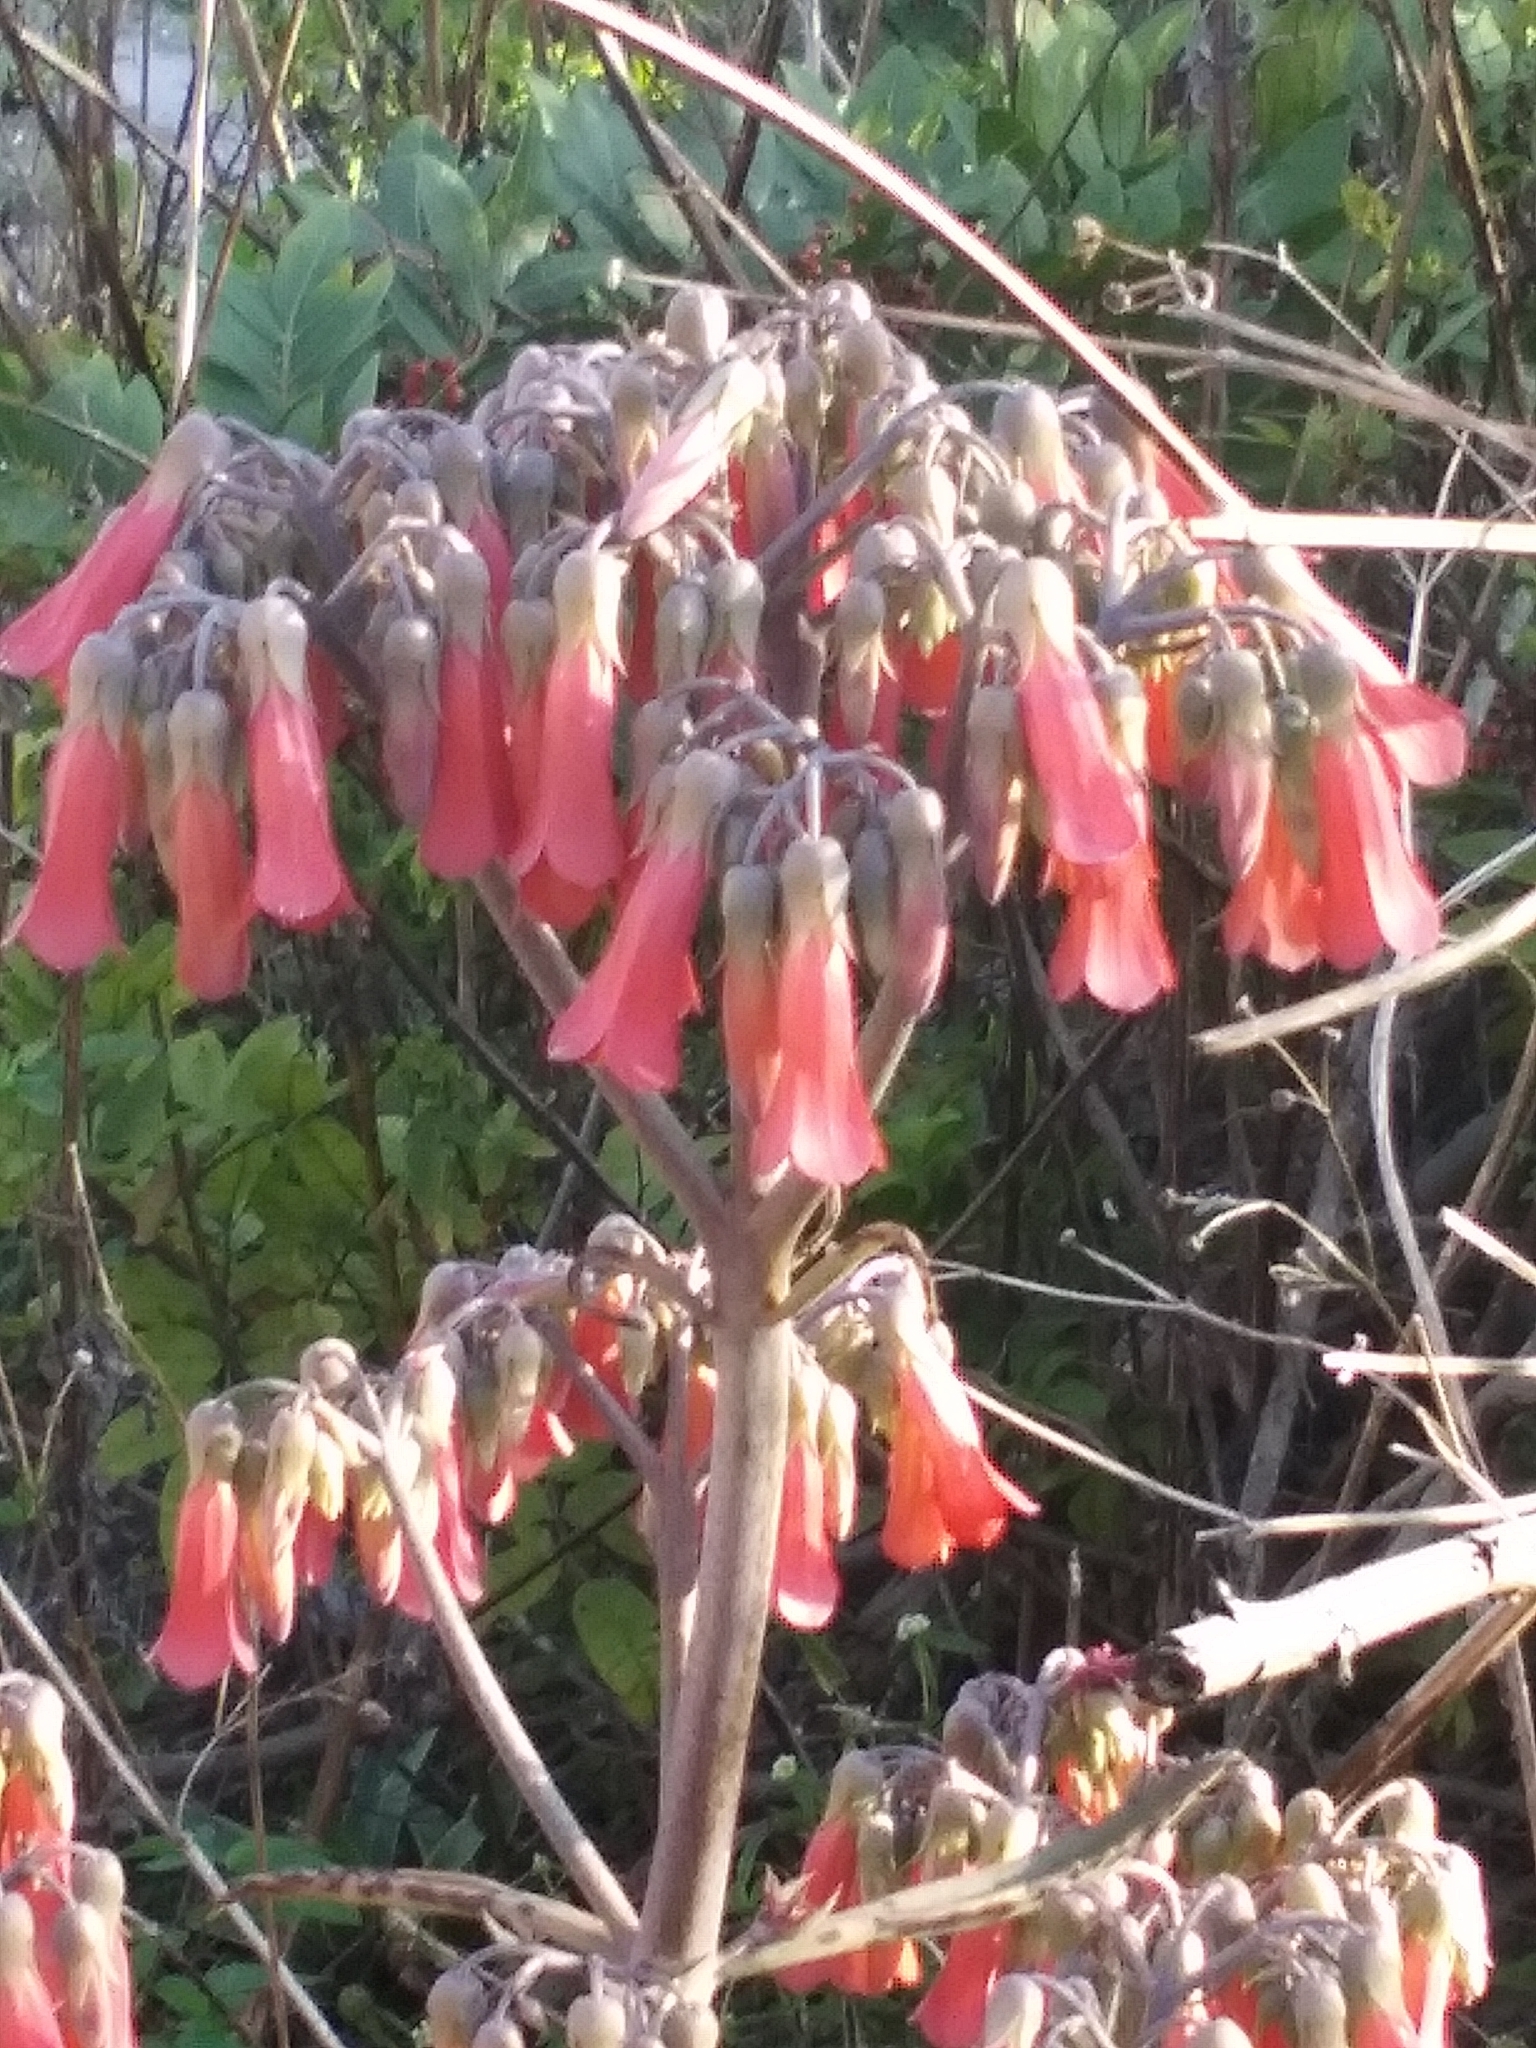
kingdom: Plantae
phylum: Tracheophyta
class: Magnoliopsida
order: Saxifragales
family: Crassulaceae
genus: Kalanchoe
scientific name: Kalanchoe houghtonii
